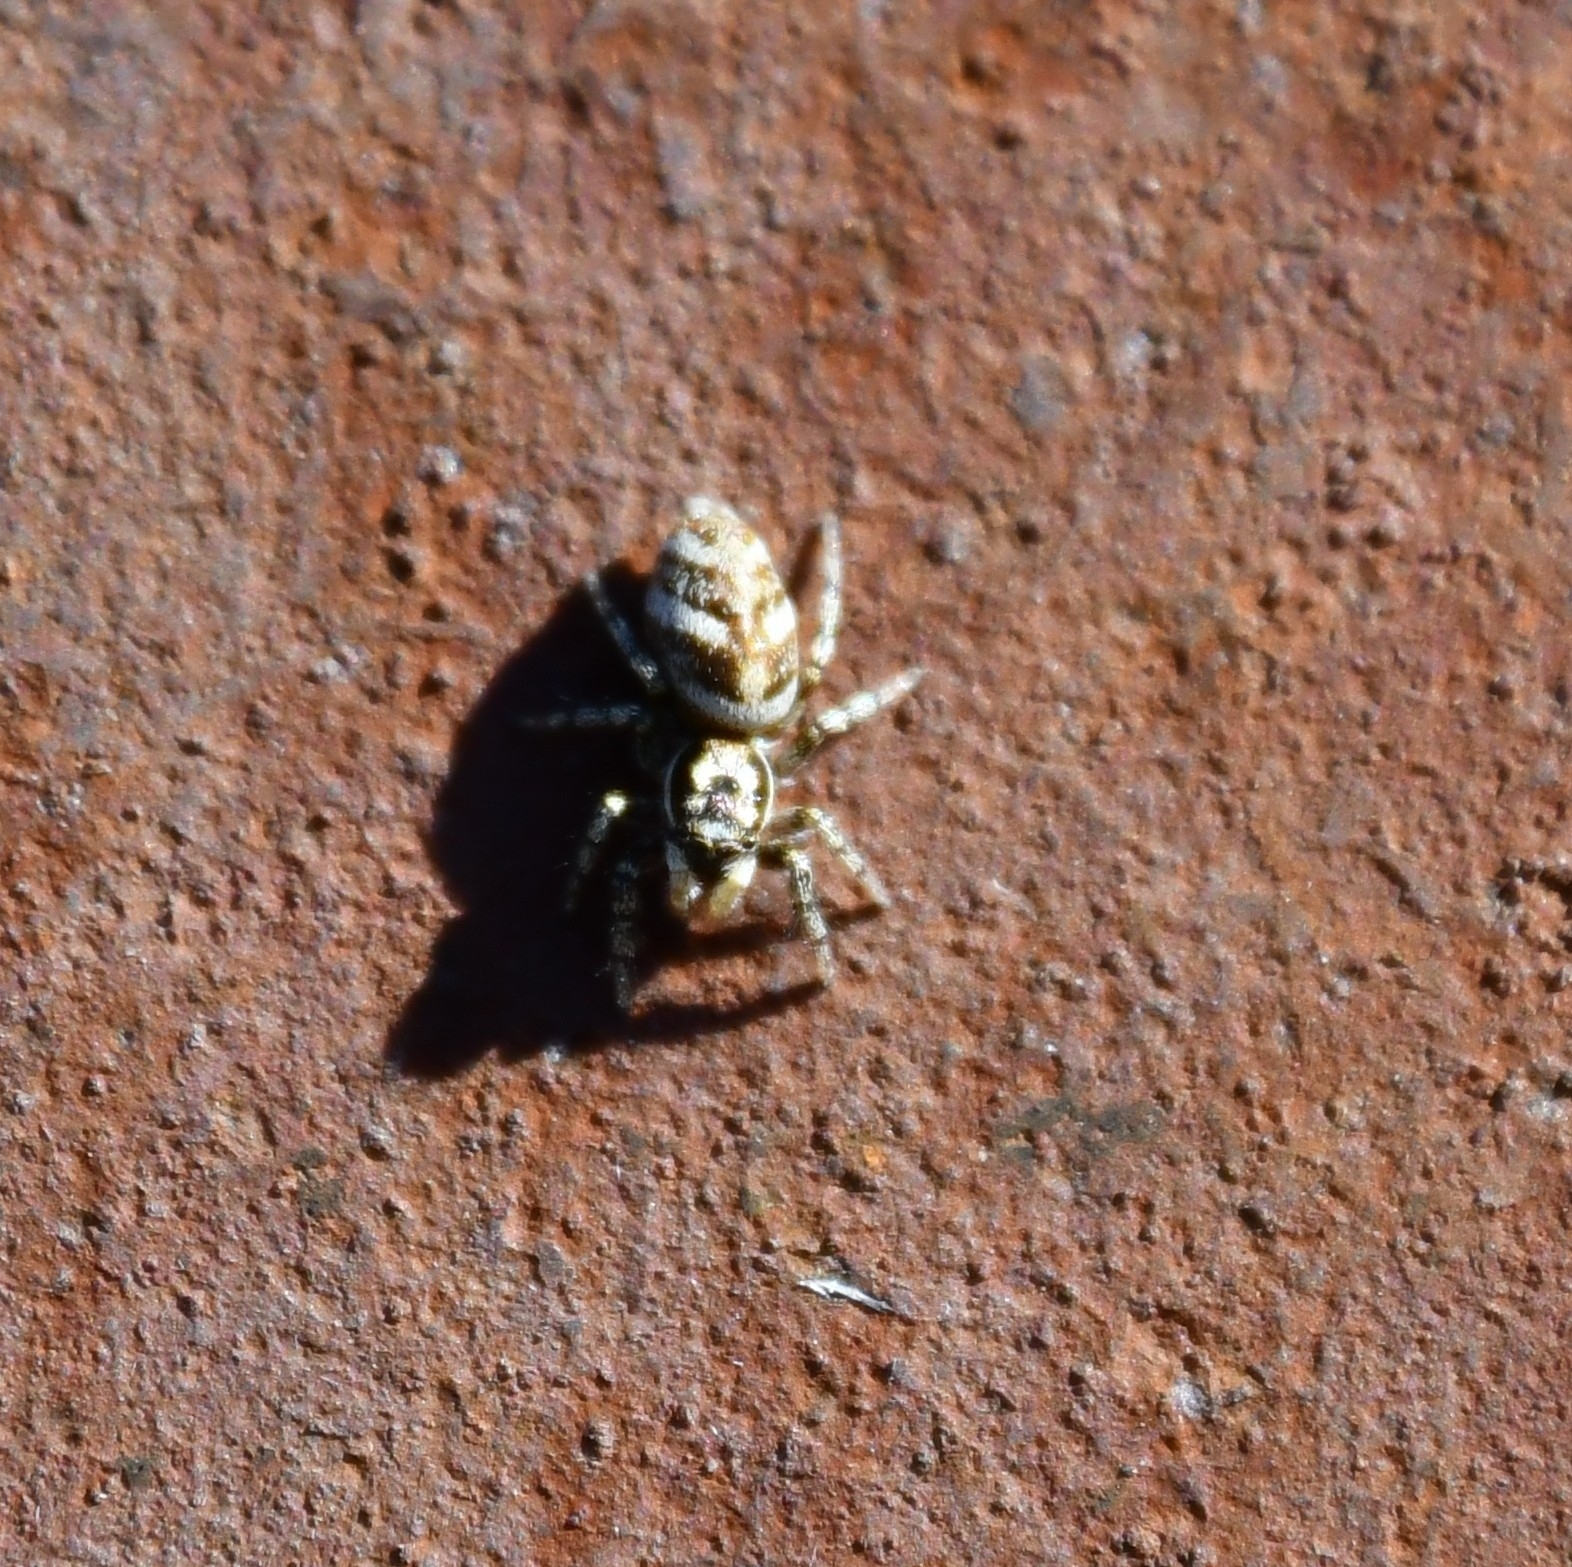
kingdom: Animalia
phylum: Arthropoda
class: Arachnida
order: Araneae
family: Salticidae
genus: Salticus
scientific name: Salticus scenicus
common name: Zebra jumper
